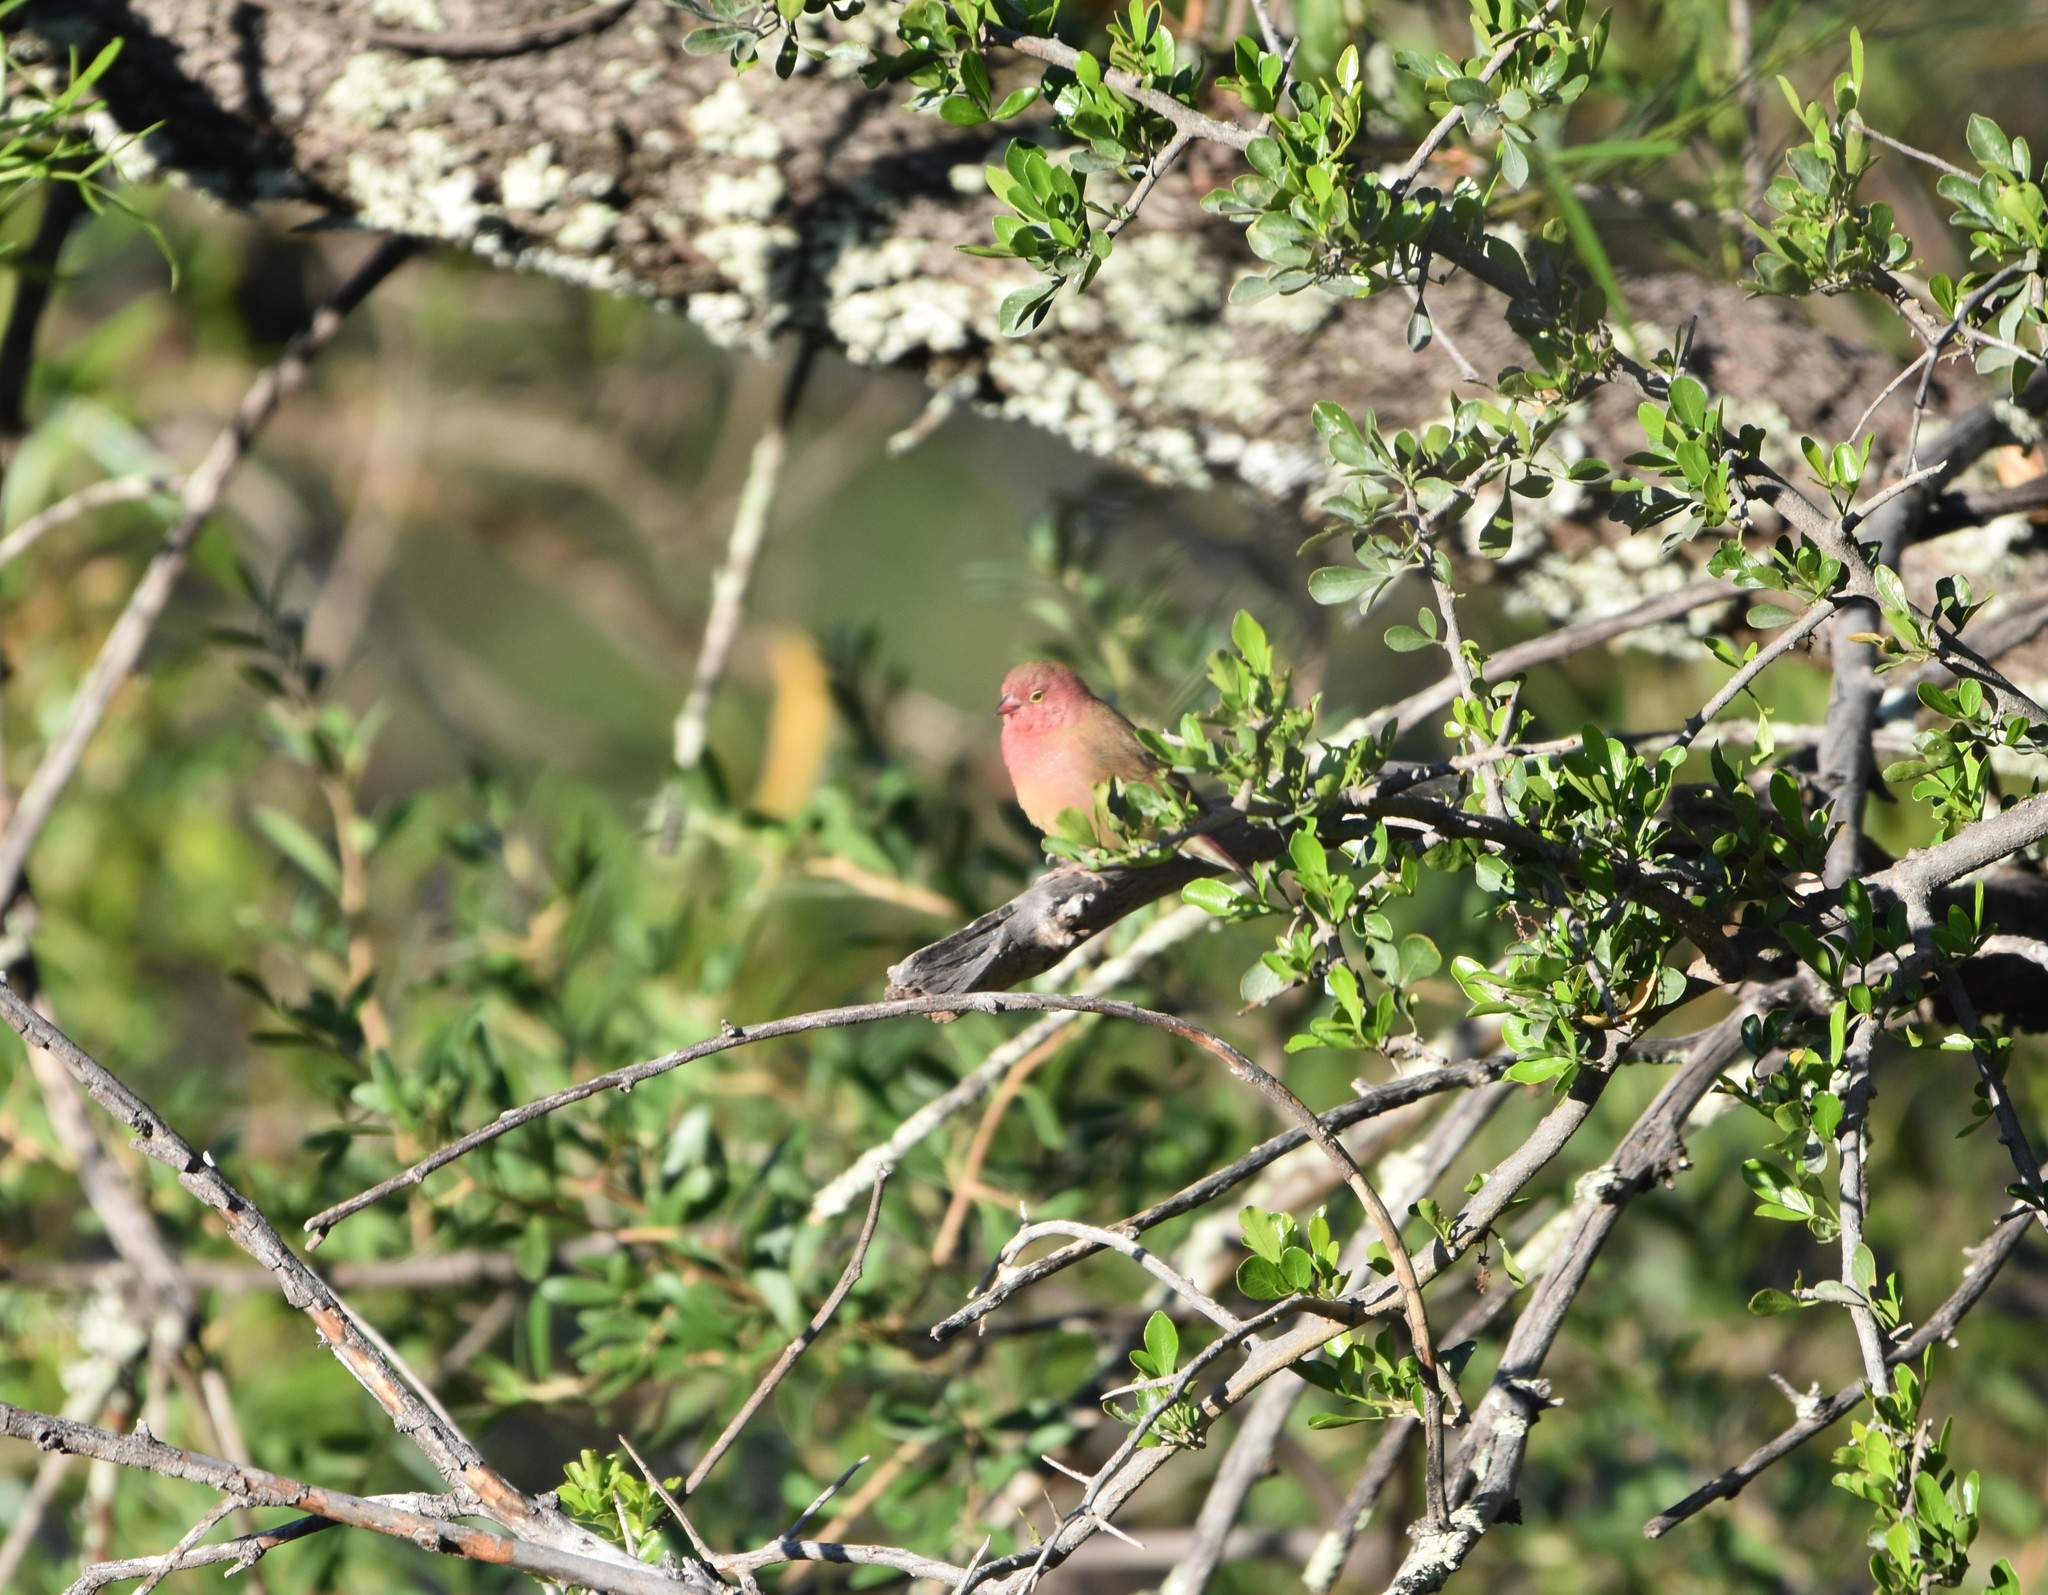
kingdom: Animalia
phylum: Chordata
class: Aves
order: Passeriformes
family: Estrildidae
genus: Lagonosticta
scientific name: Lagonosticta senegala
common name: Red-billed firefinch
